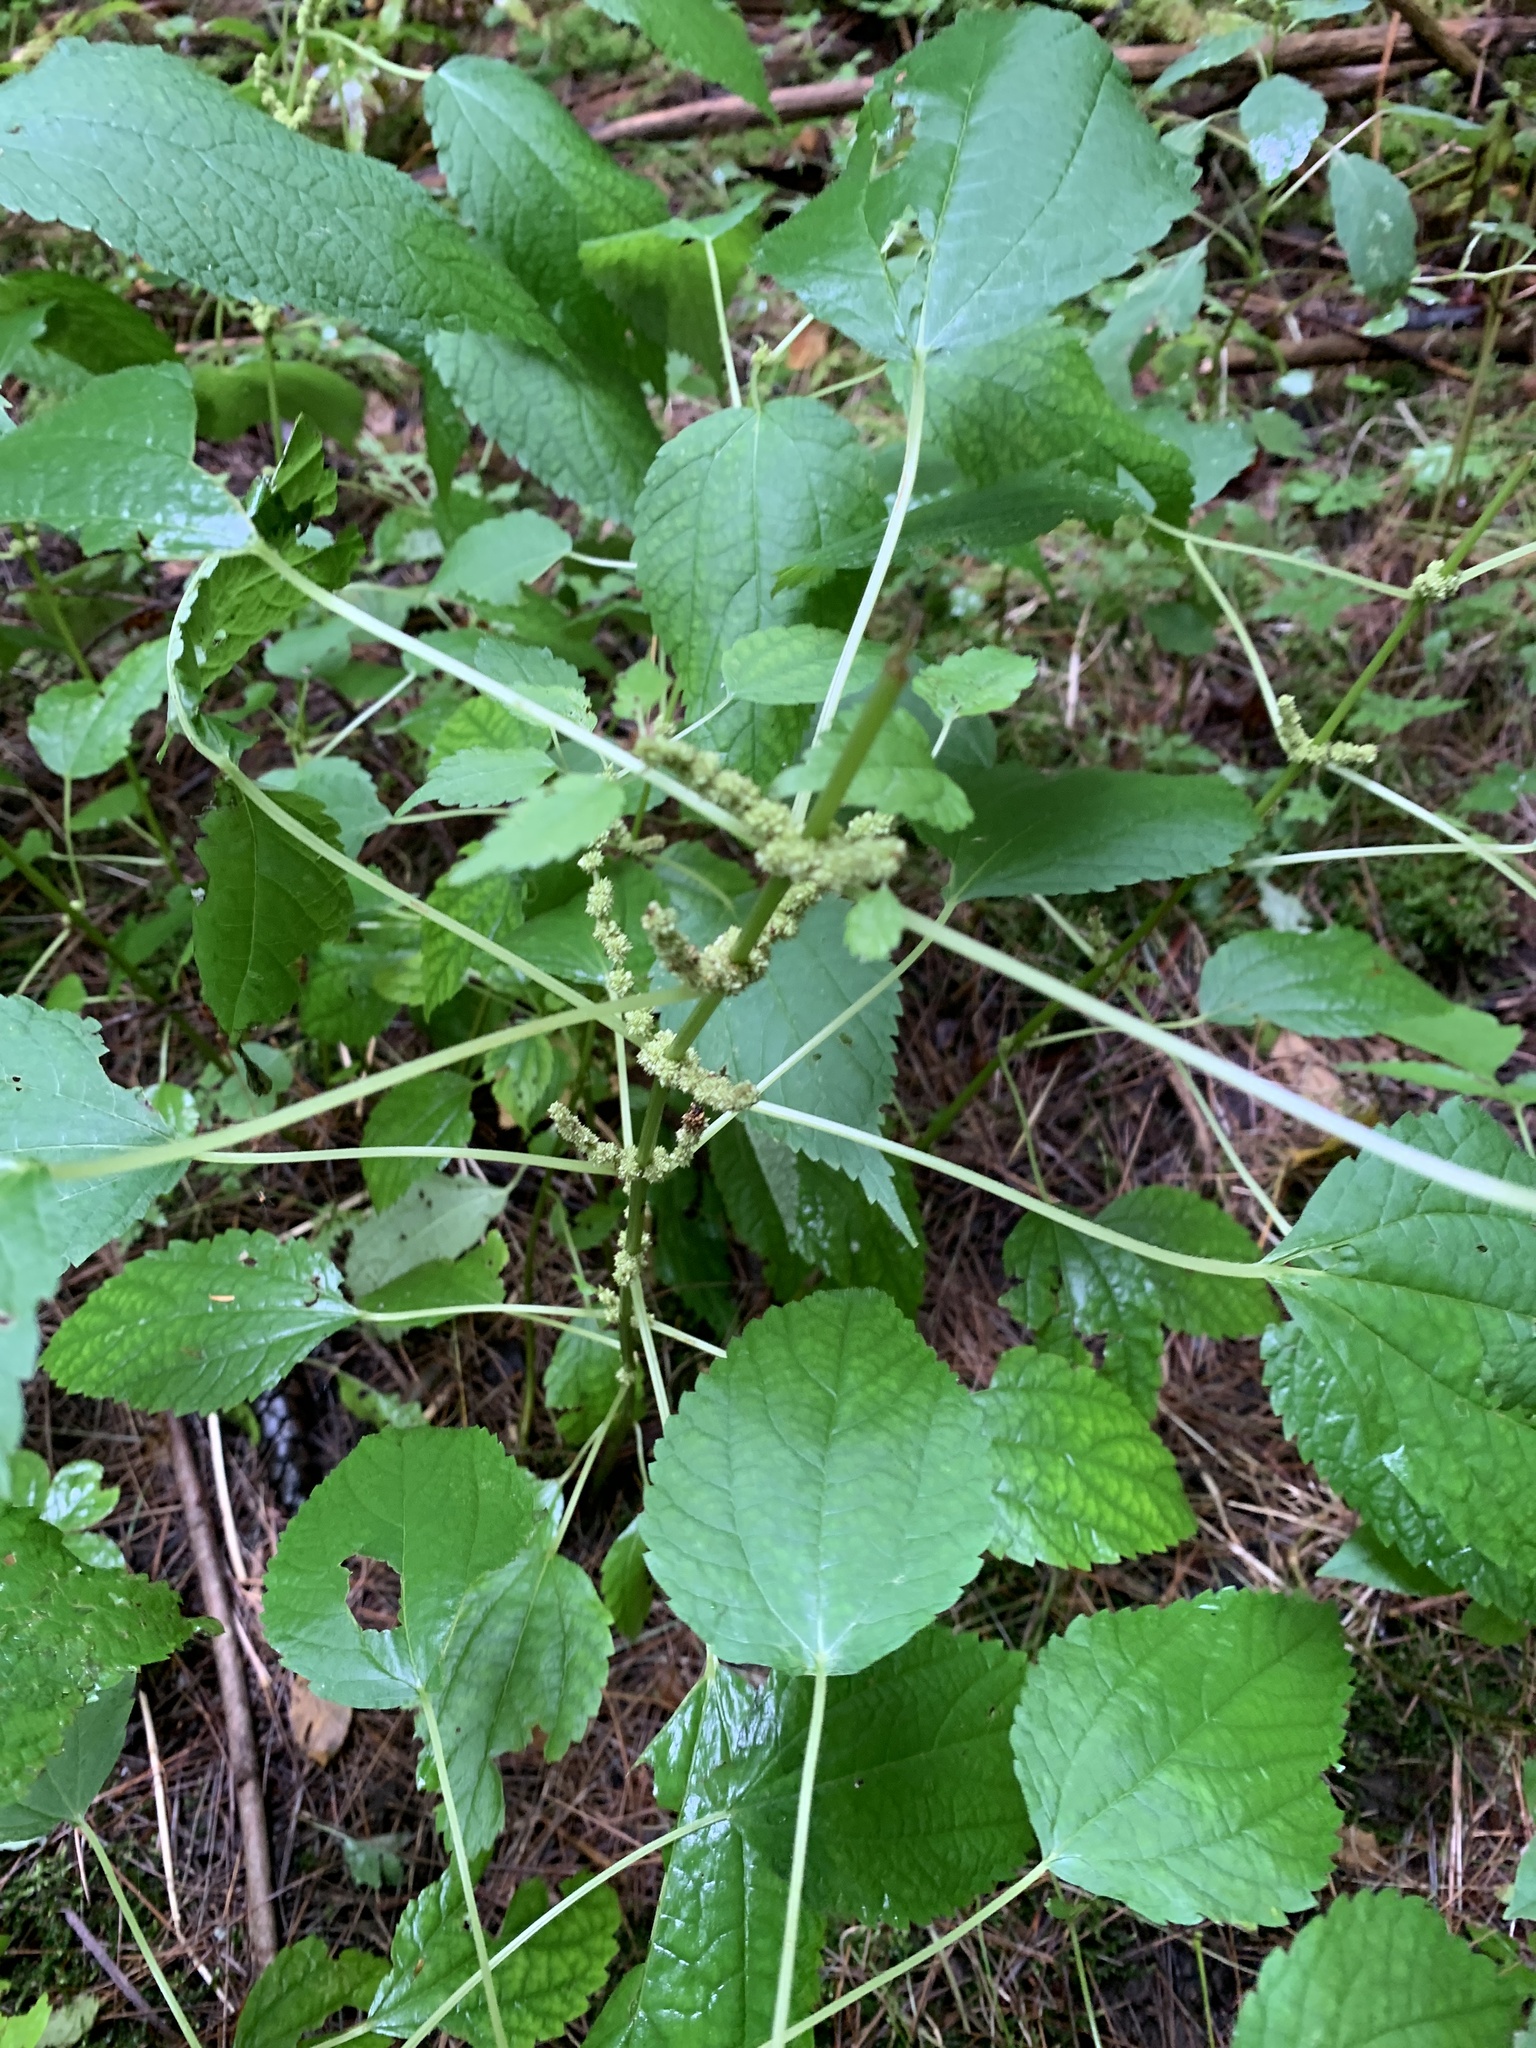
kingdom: Plantae
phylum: Tracheophyta
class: Magnoliopsida
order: Rosales
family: Urticaceae
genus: Boehmeria
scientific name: Boehmeria cylindrica
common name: Bog-hemp
